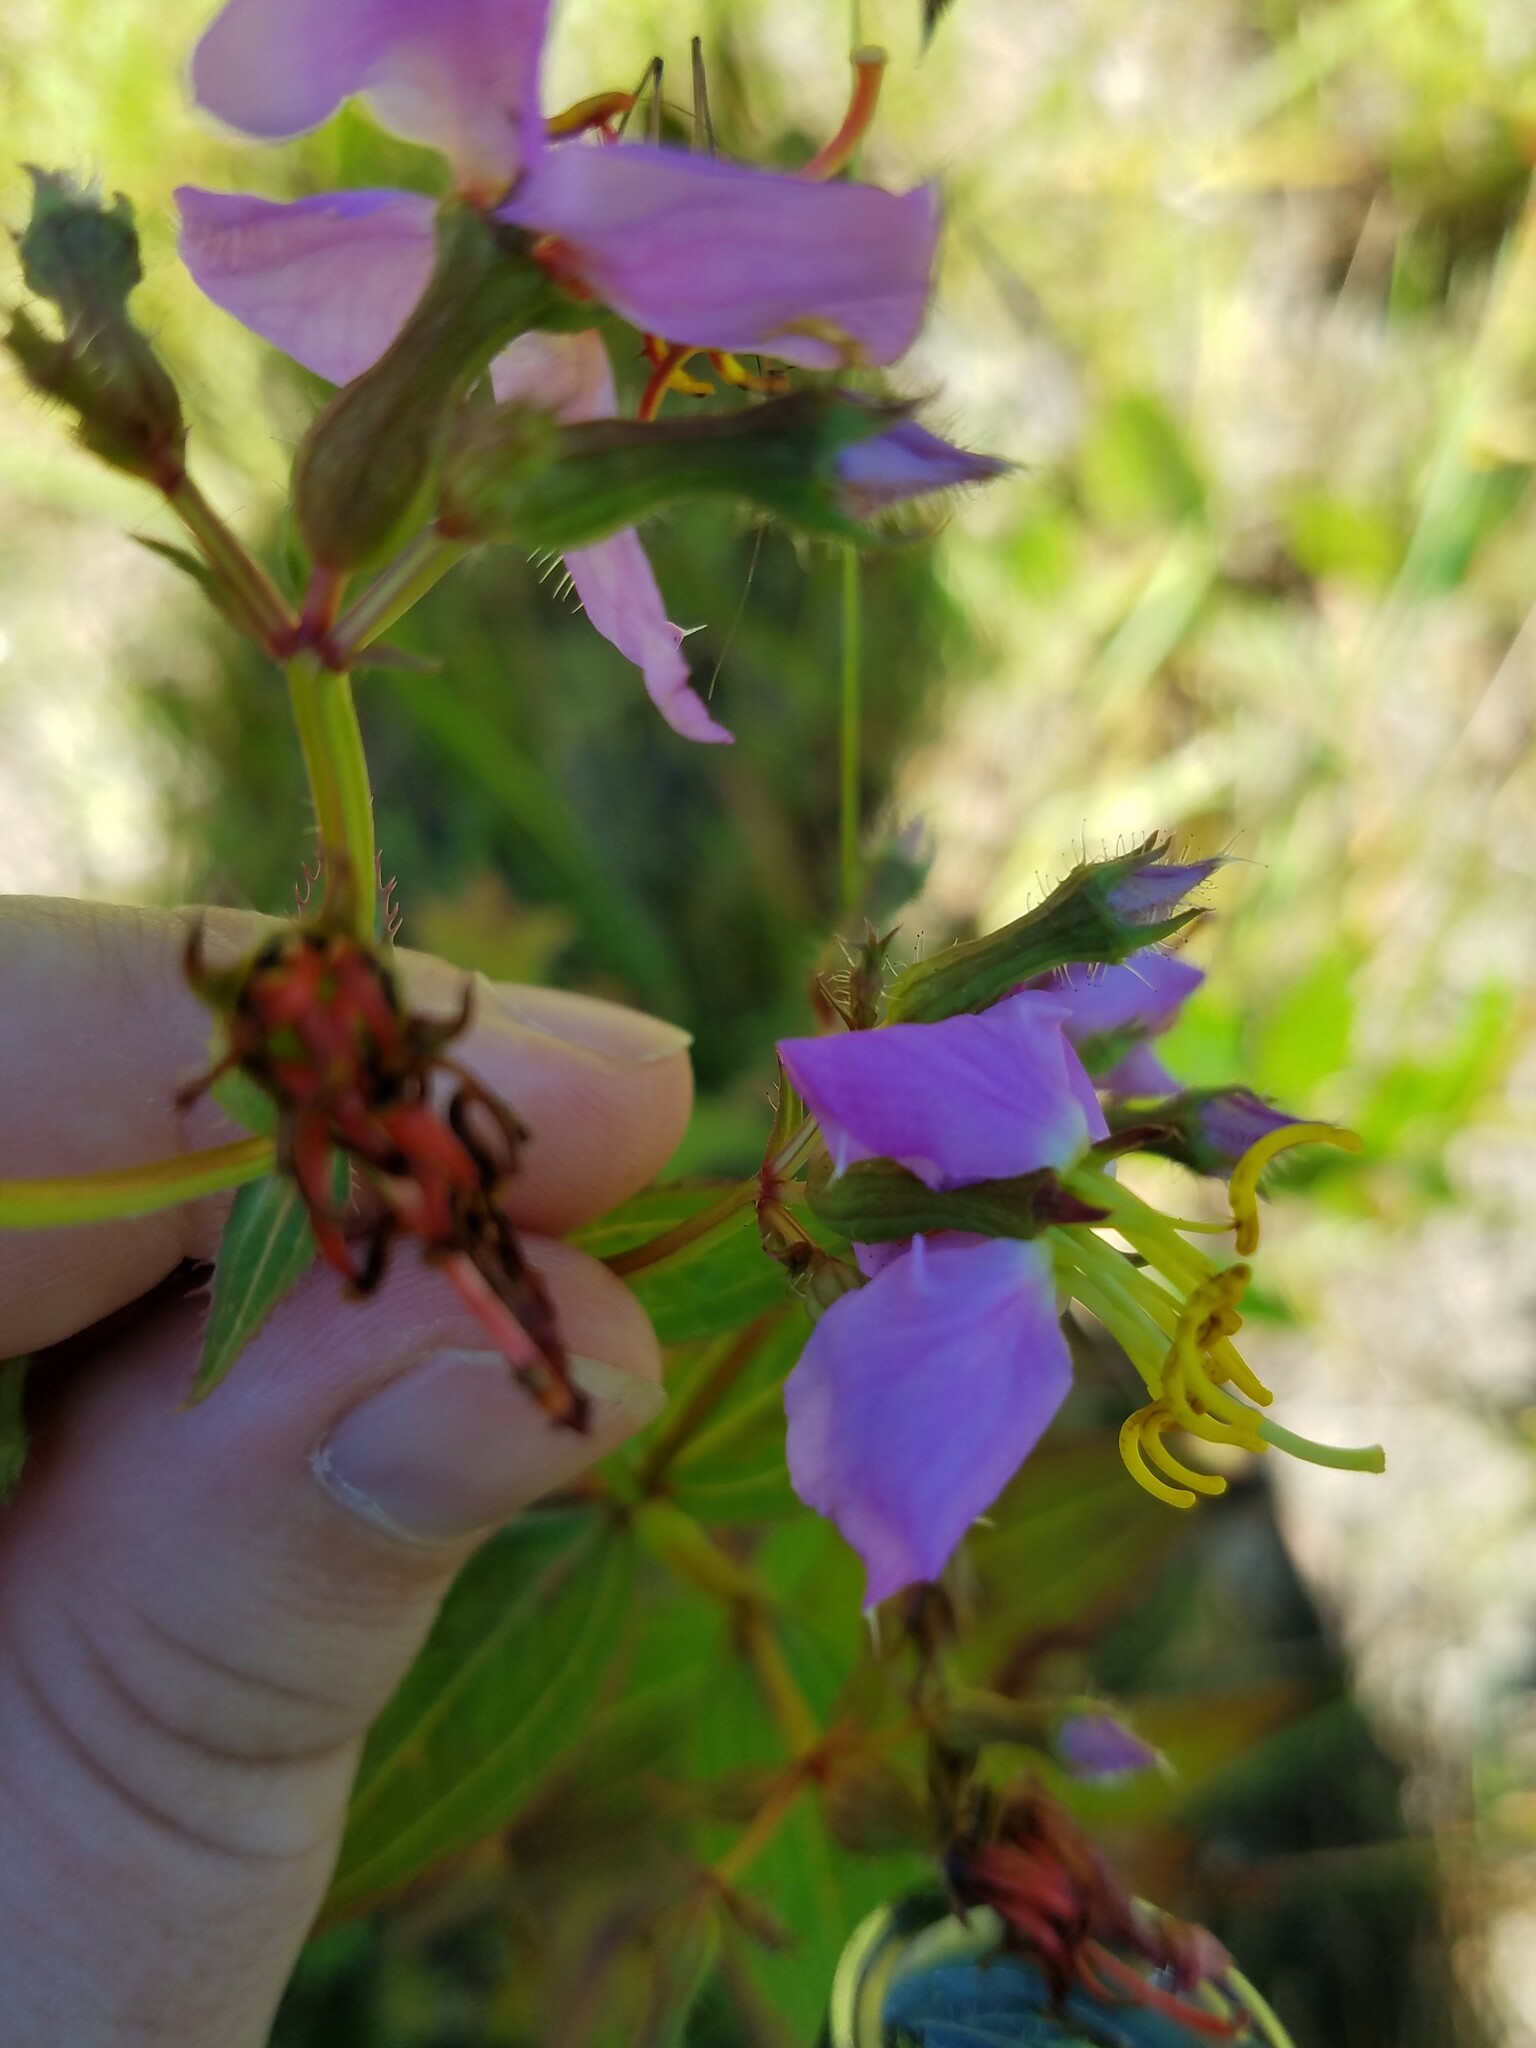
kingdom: Plantae
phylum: Tracheophyta
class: Magnoliopsida
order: Myrtales
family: Melastomataceae
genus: Rhexia
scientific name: Rhexia virginica
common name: Common meadow beauty
